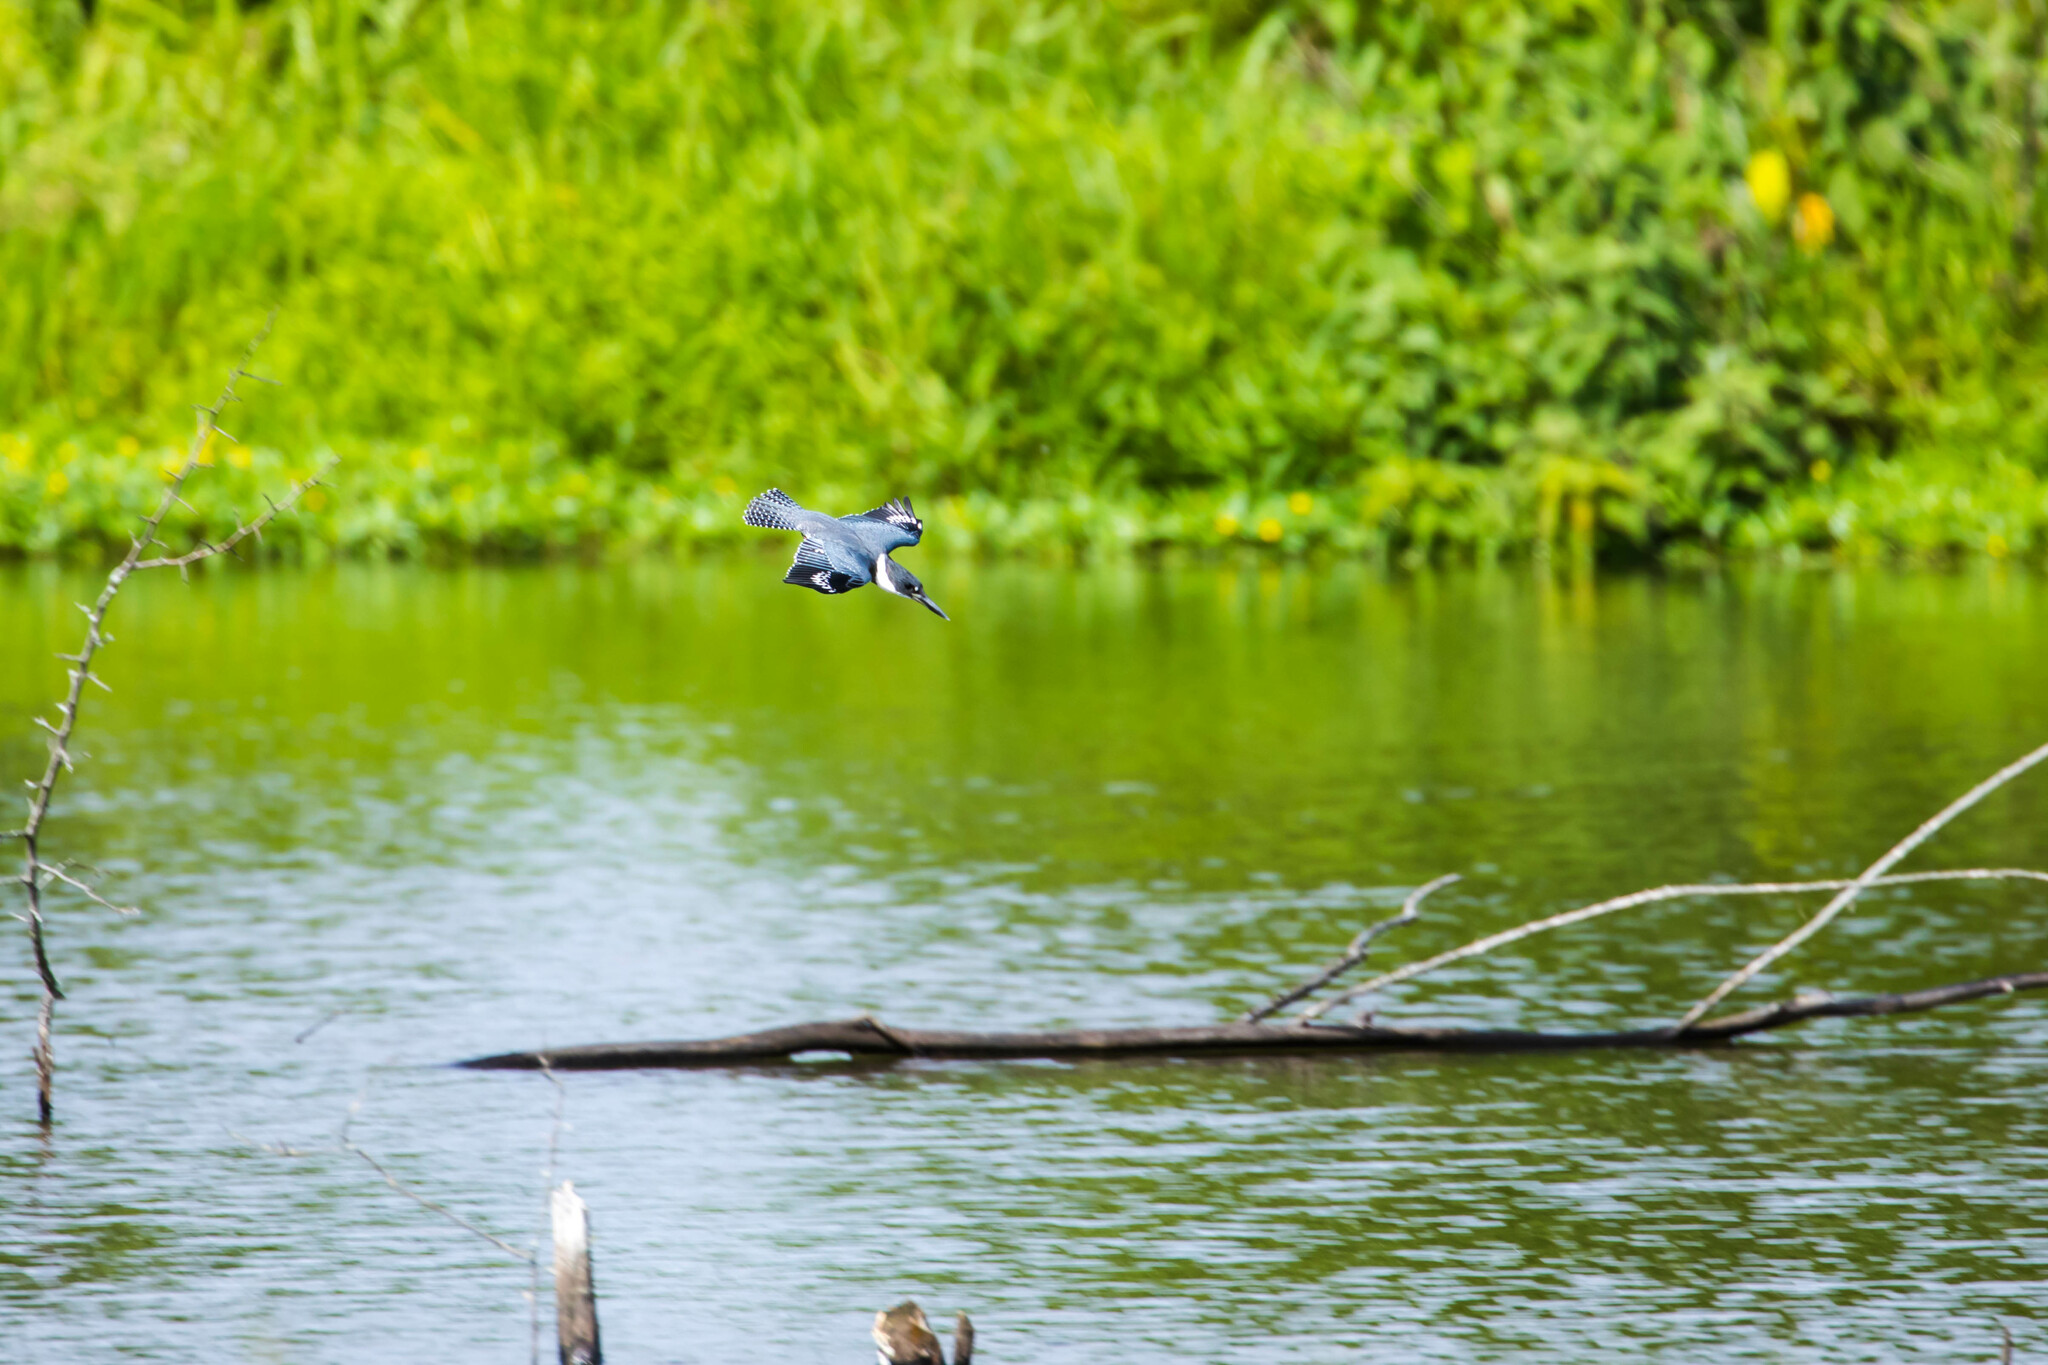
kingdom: Animalia
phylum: Chordata
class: Aves
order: Coraciiformes
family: Alcedinidae
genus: Megaceryle
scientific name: Megaceryle alcyon
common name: Belted kingfisher
